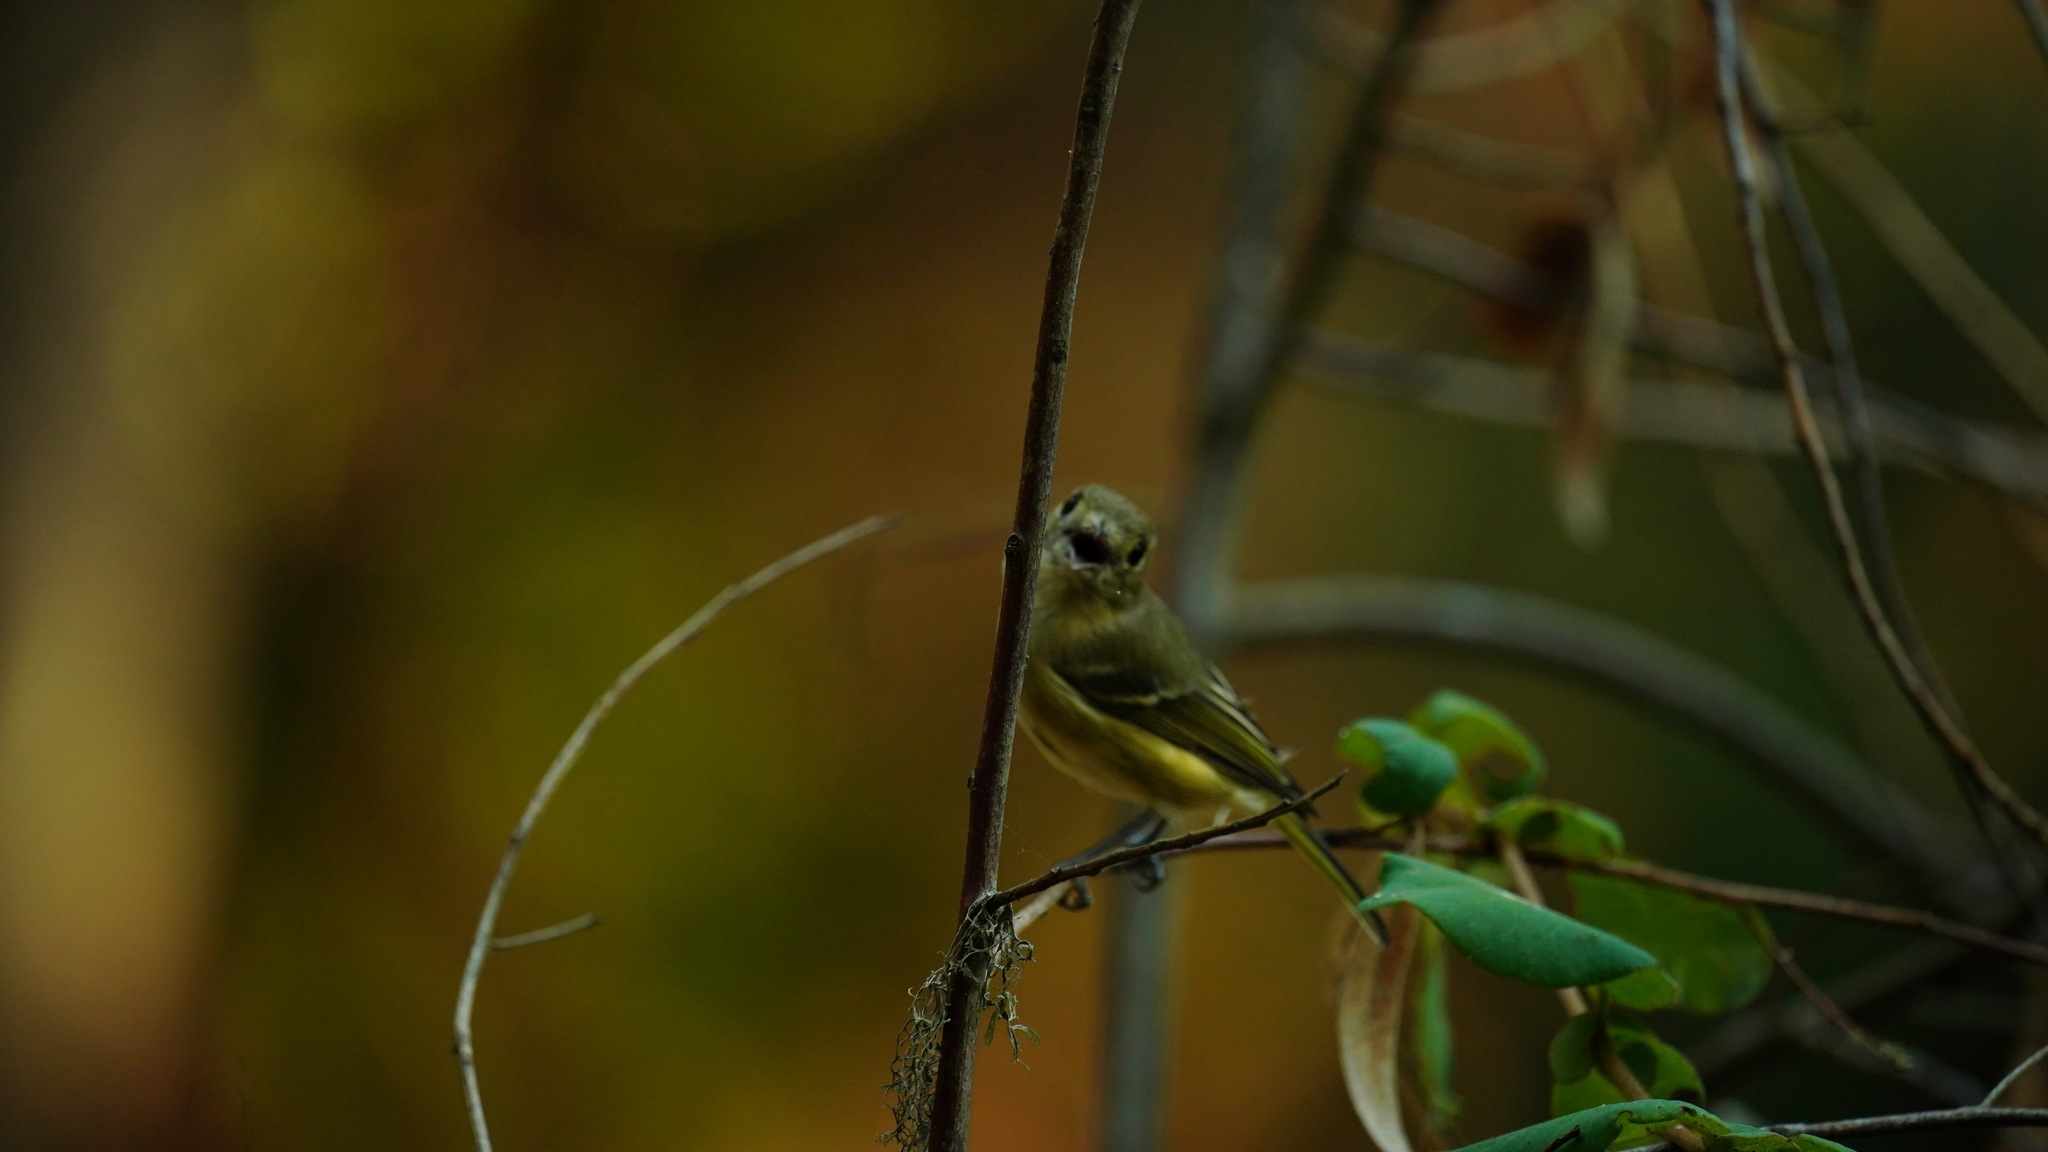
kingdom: Animalia
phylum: Chordata
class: Aves
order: Passeriformes
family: Vireonidae
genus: Vireo
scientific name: Vireo huttoni
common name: Hutton's vireo
